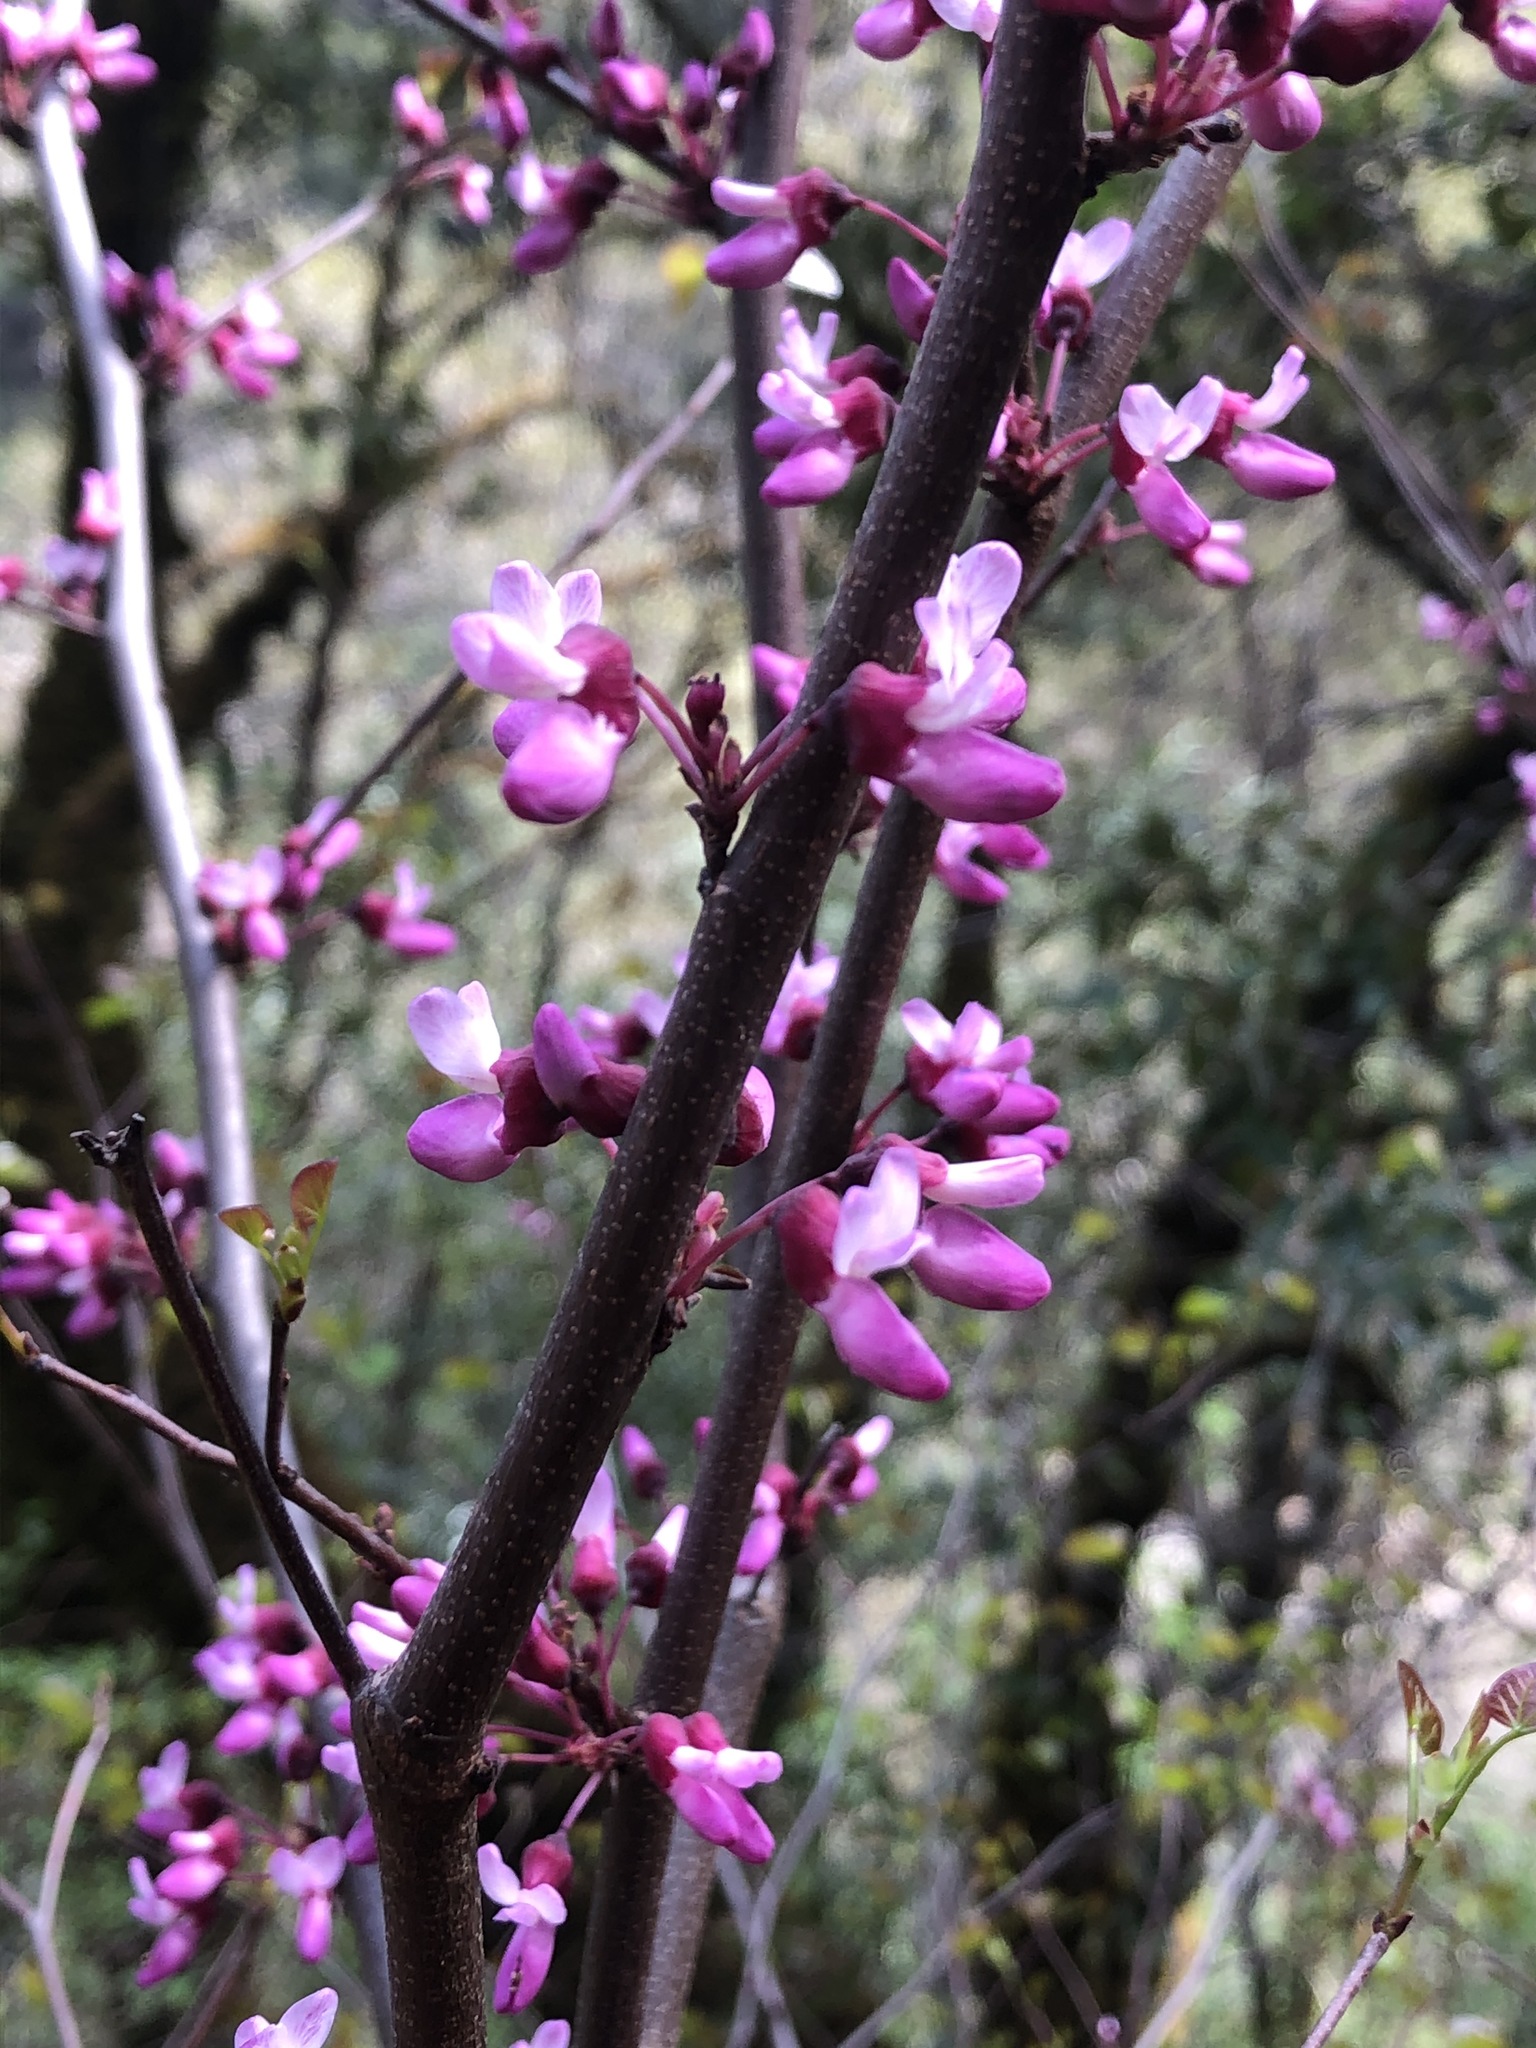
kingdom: Plantae
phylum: Tracheophyta
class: Magnoliopsida
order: Fabales
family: Fabaceae
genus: Cercis
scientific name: Cercis occidentalis
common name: California redbud
